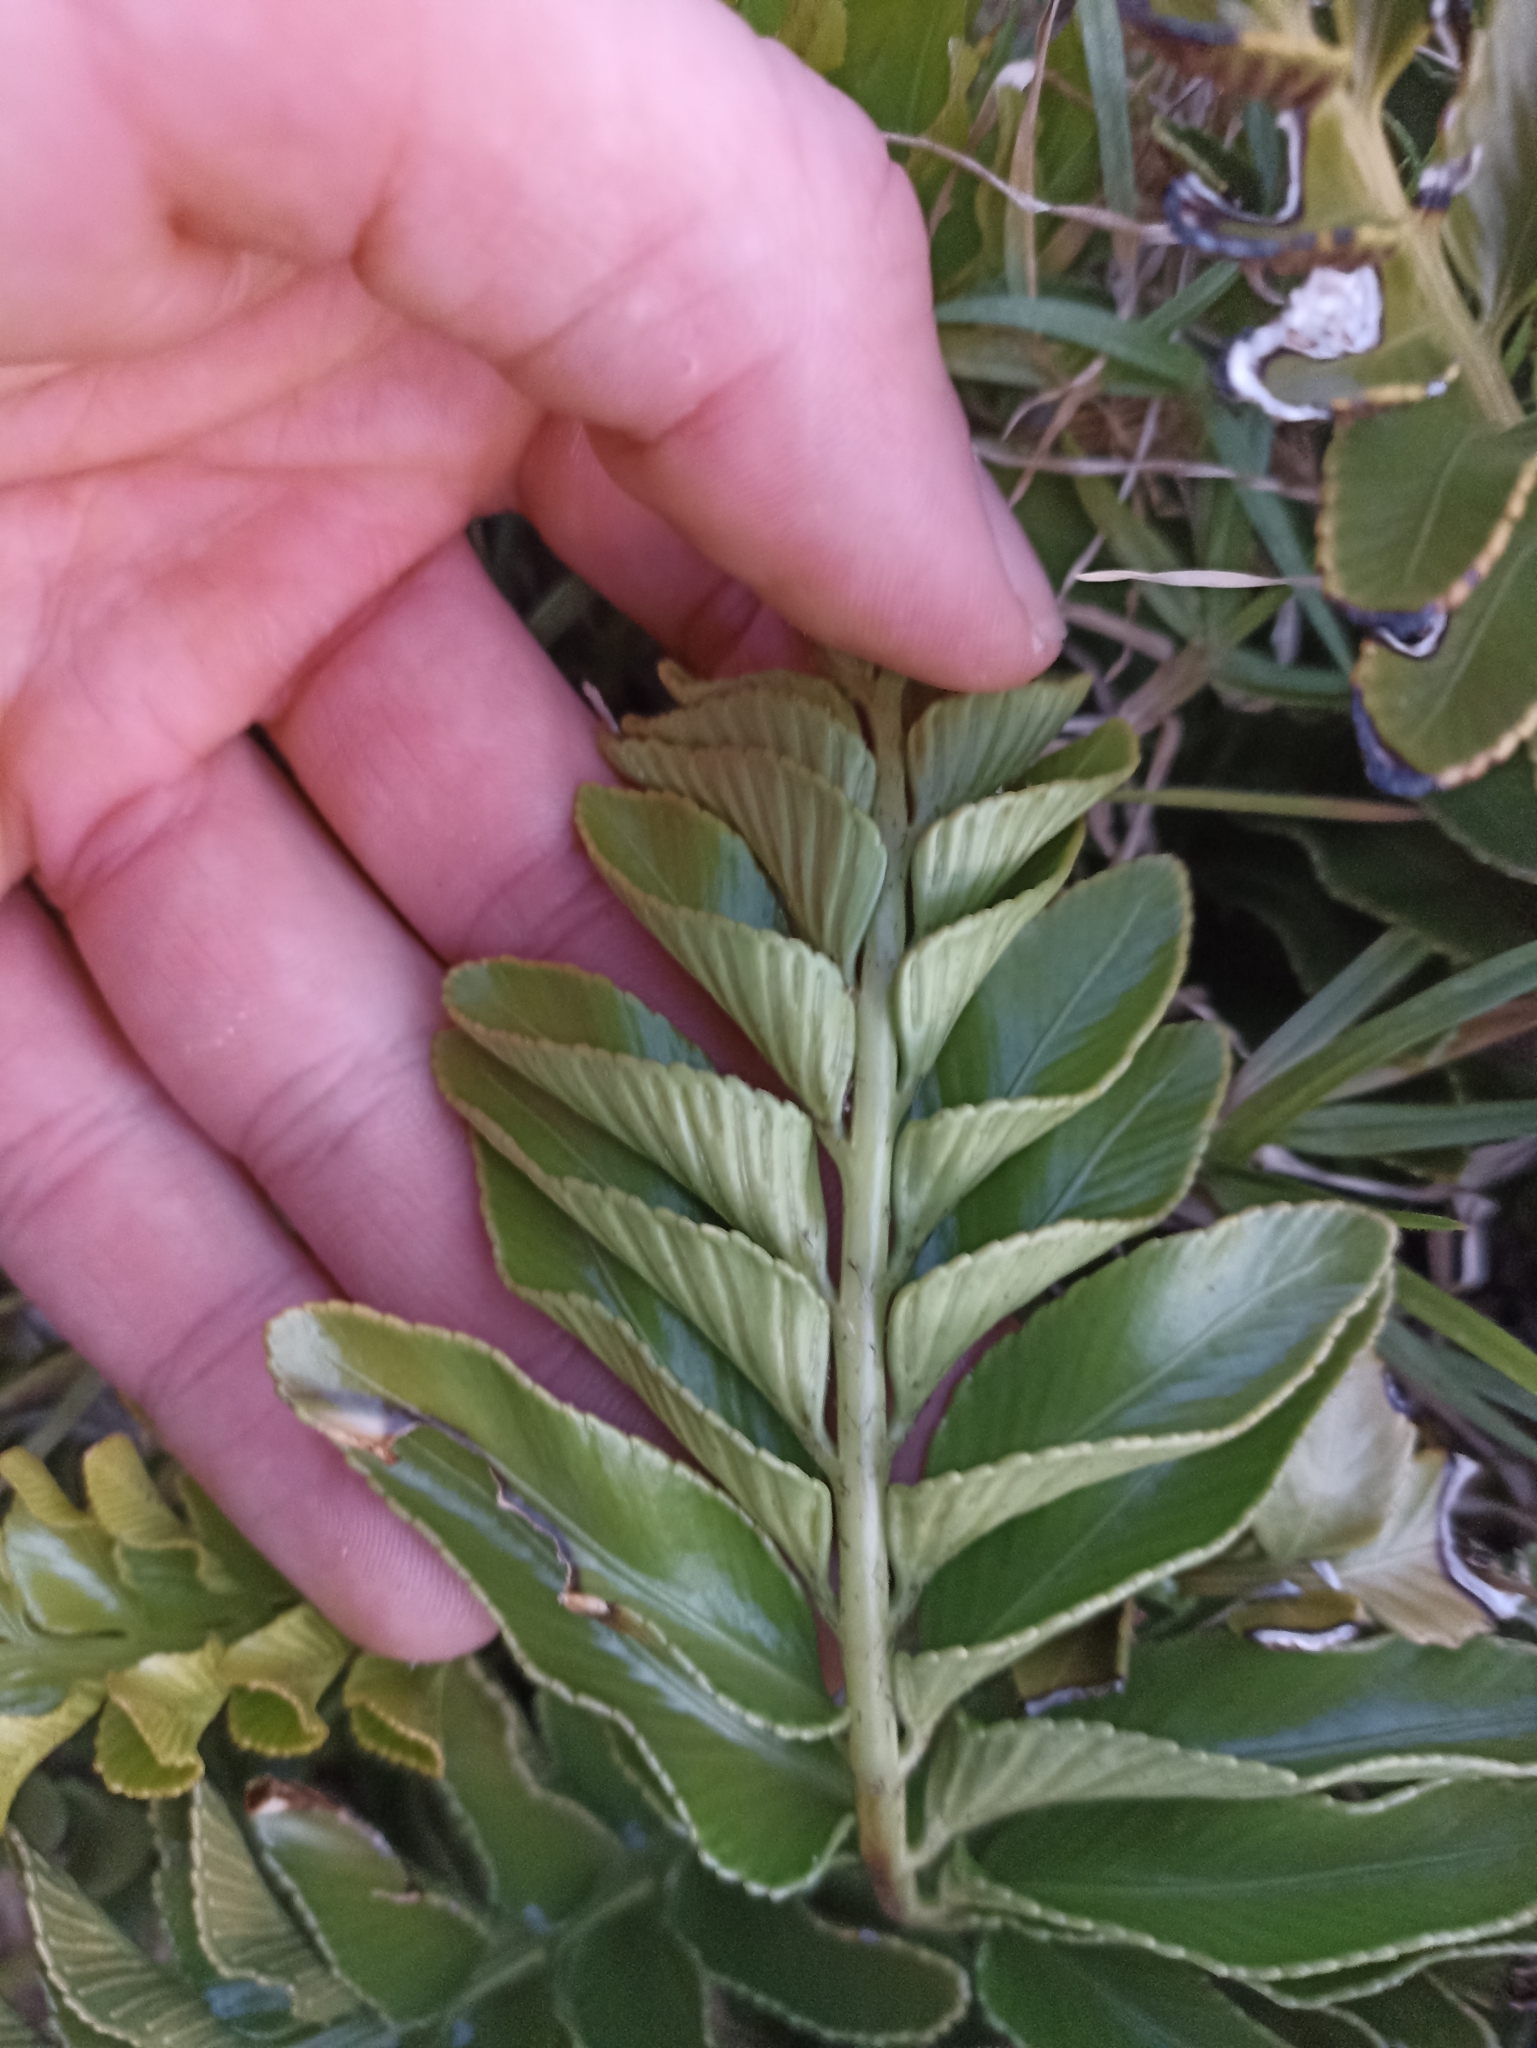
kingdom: Plantae
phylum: Tracheophyta
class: Polypodiopsida
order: Polypodiales
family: Aspleniaceae
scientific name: Aspleniaceae
